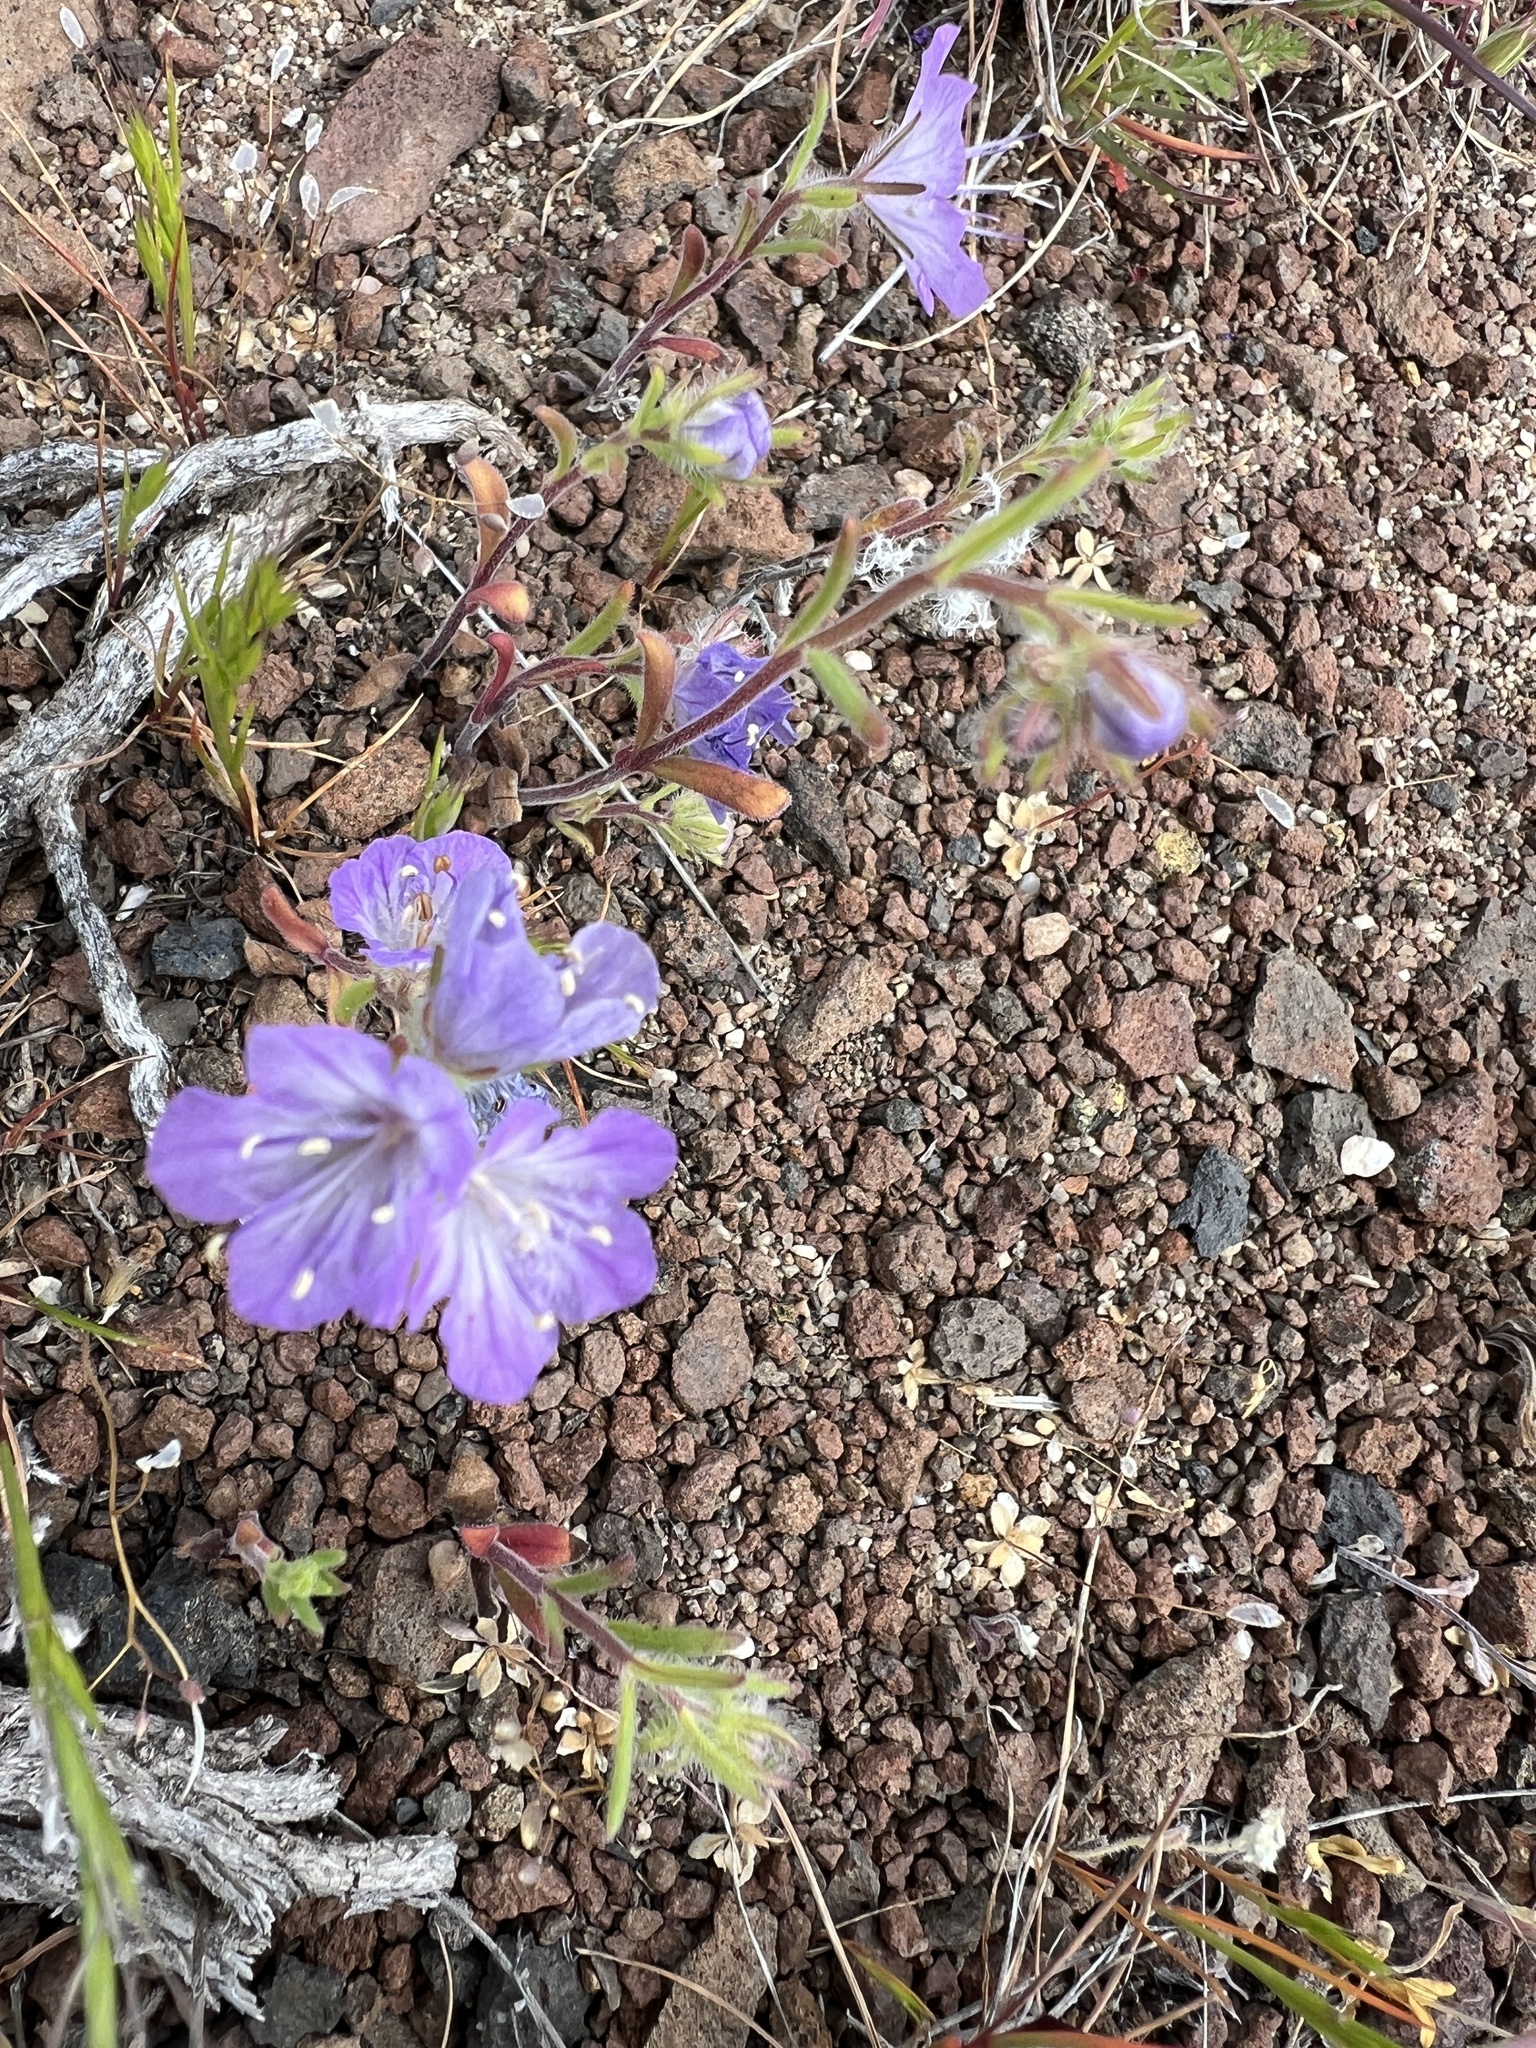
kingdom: Plantae
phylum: Tracheophyta
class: Magnoliopsida
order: Boraginales
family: Hydrophyllaceae
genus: Phacelia
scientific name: Phacelia linearis
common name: Linear-leaved phacelia
